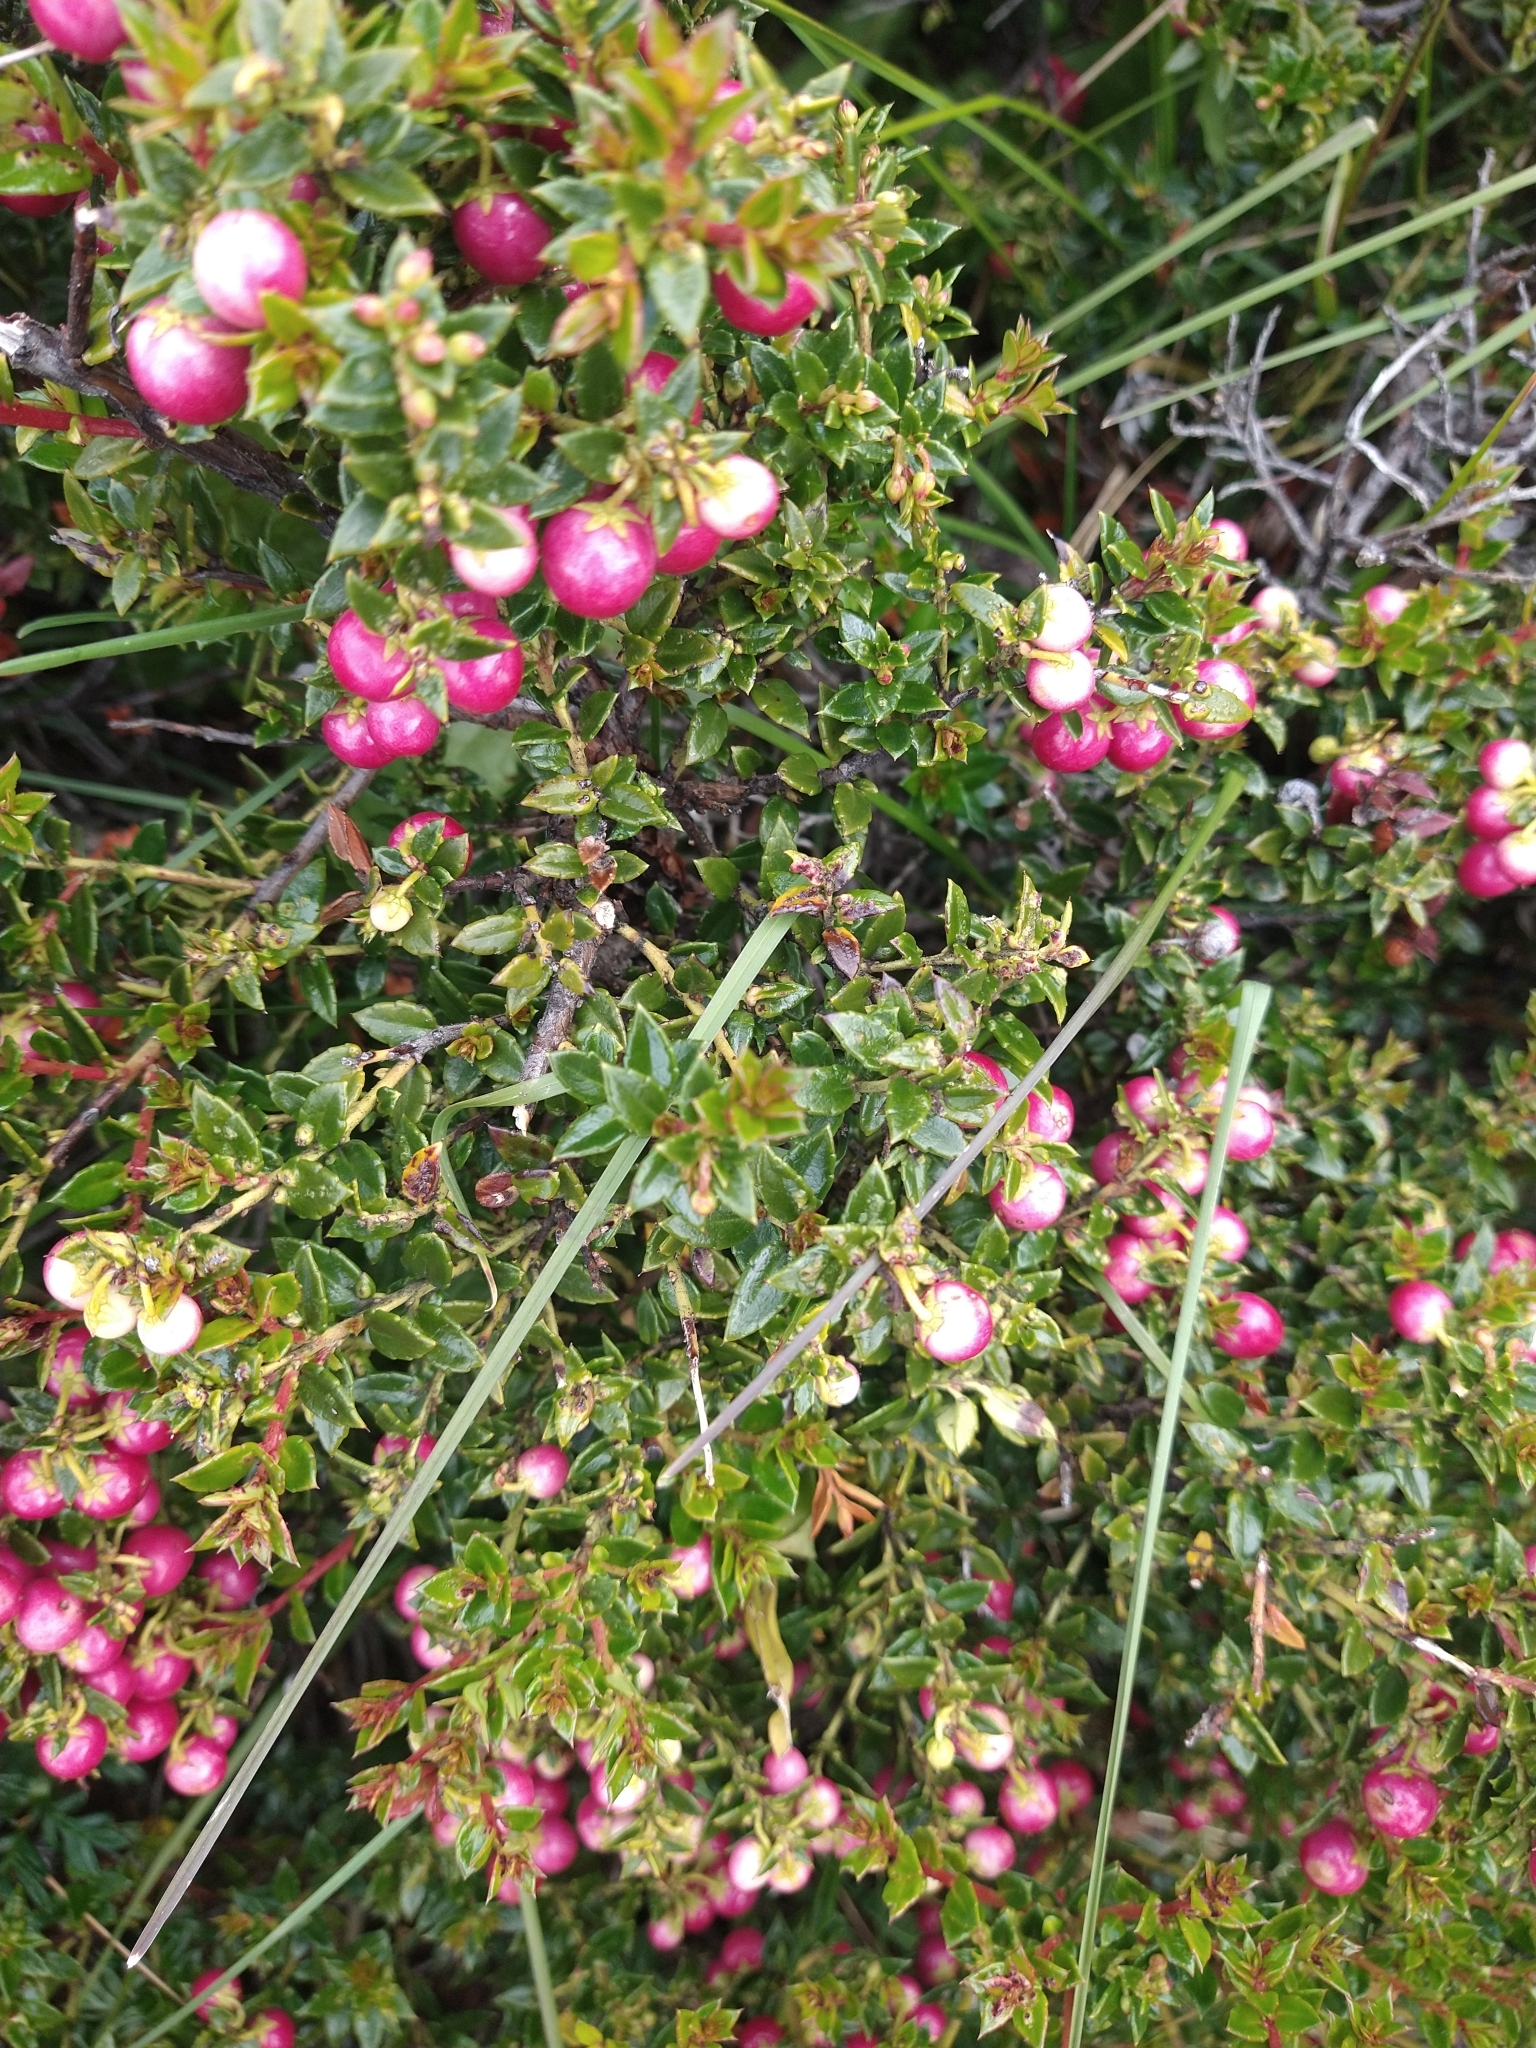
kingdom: Plantae
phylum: Tracheophyta
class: Magnoliopsida
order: Ericales
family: Ericaceae
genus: Gaultheria
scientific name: Gaultheria mucronata
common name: Prickly heath
